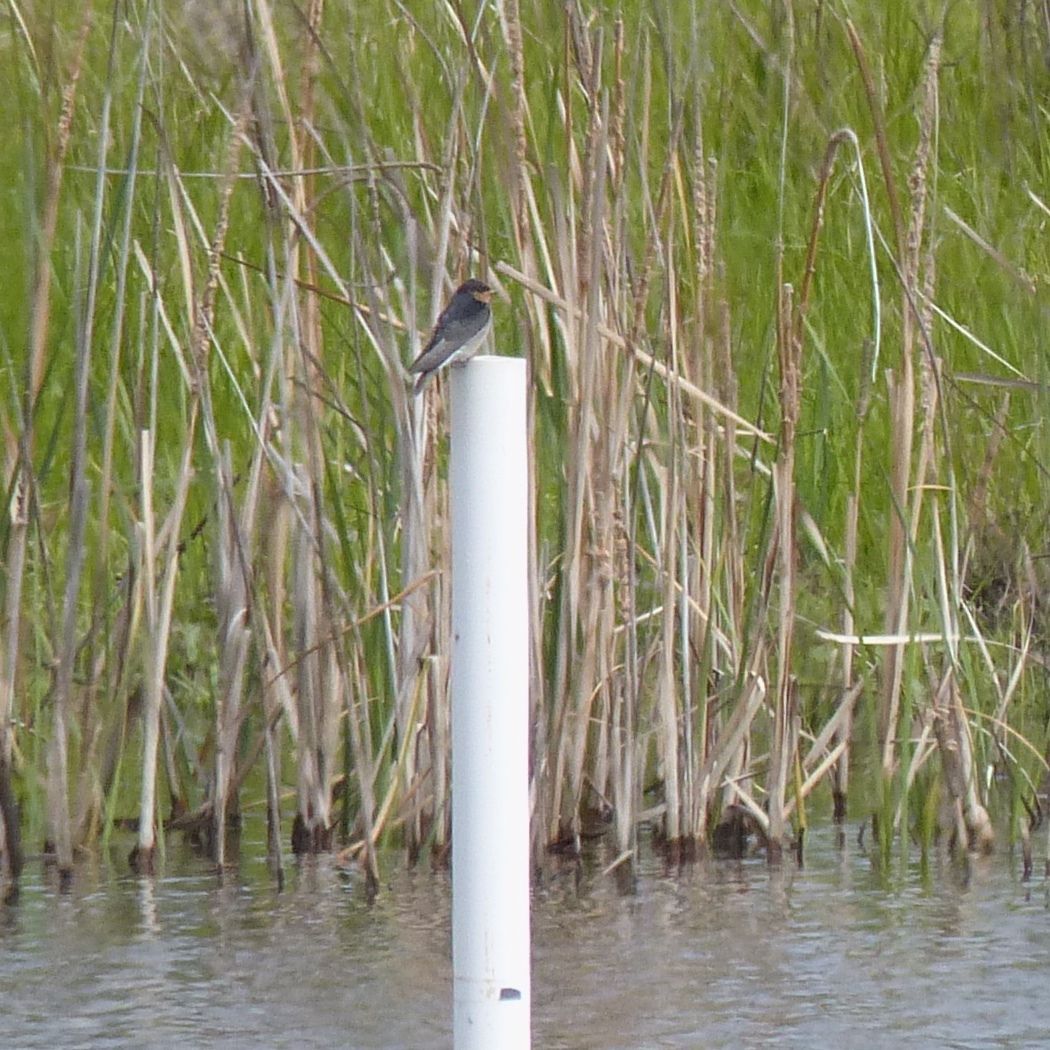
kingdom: Animalia
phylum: Chordata
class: Aves
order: Passeriformes
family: Hirundinidae
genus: Hirundo
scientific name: Hirundo neoxena
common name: Welcome swallow
